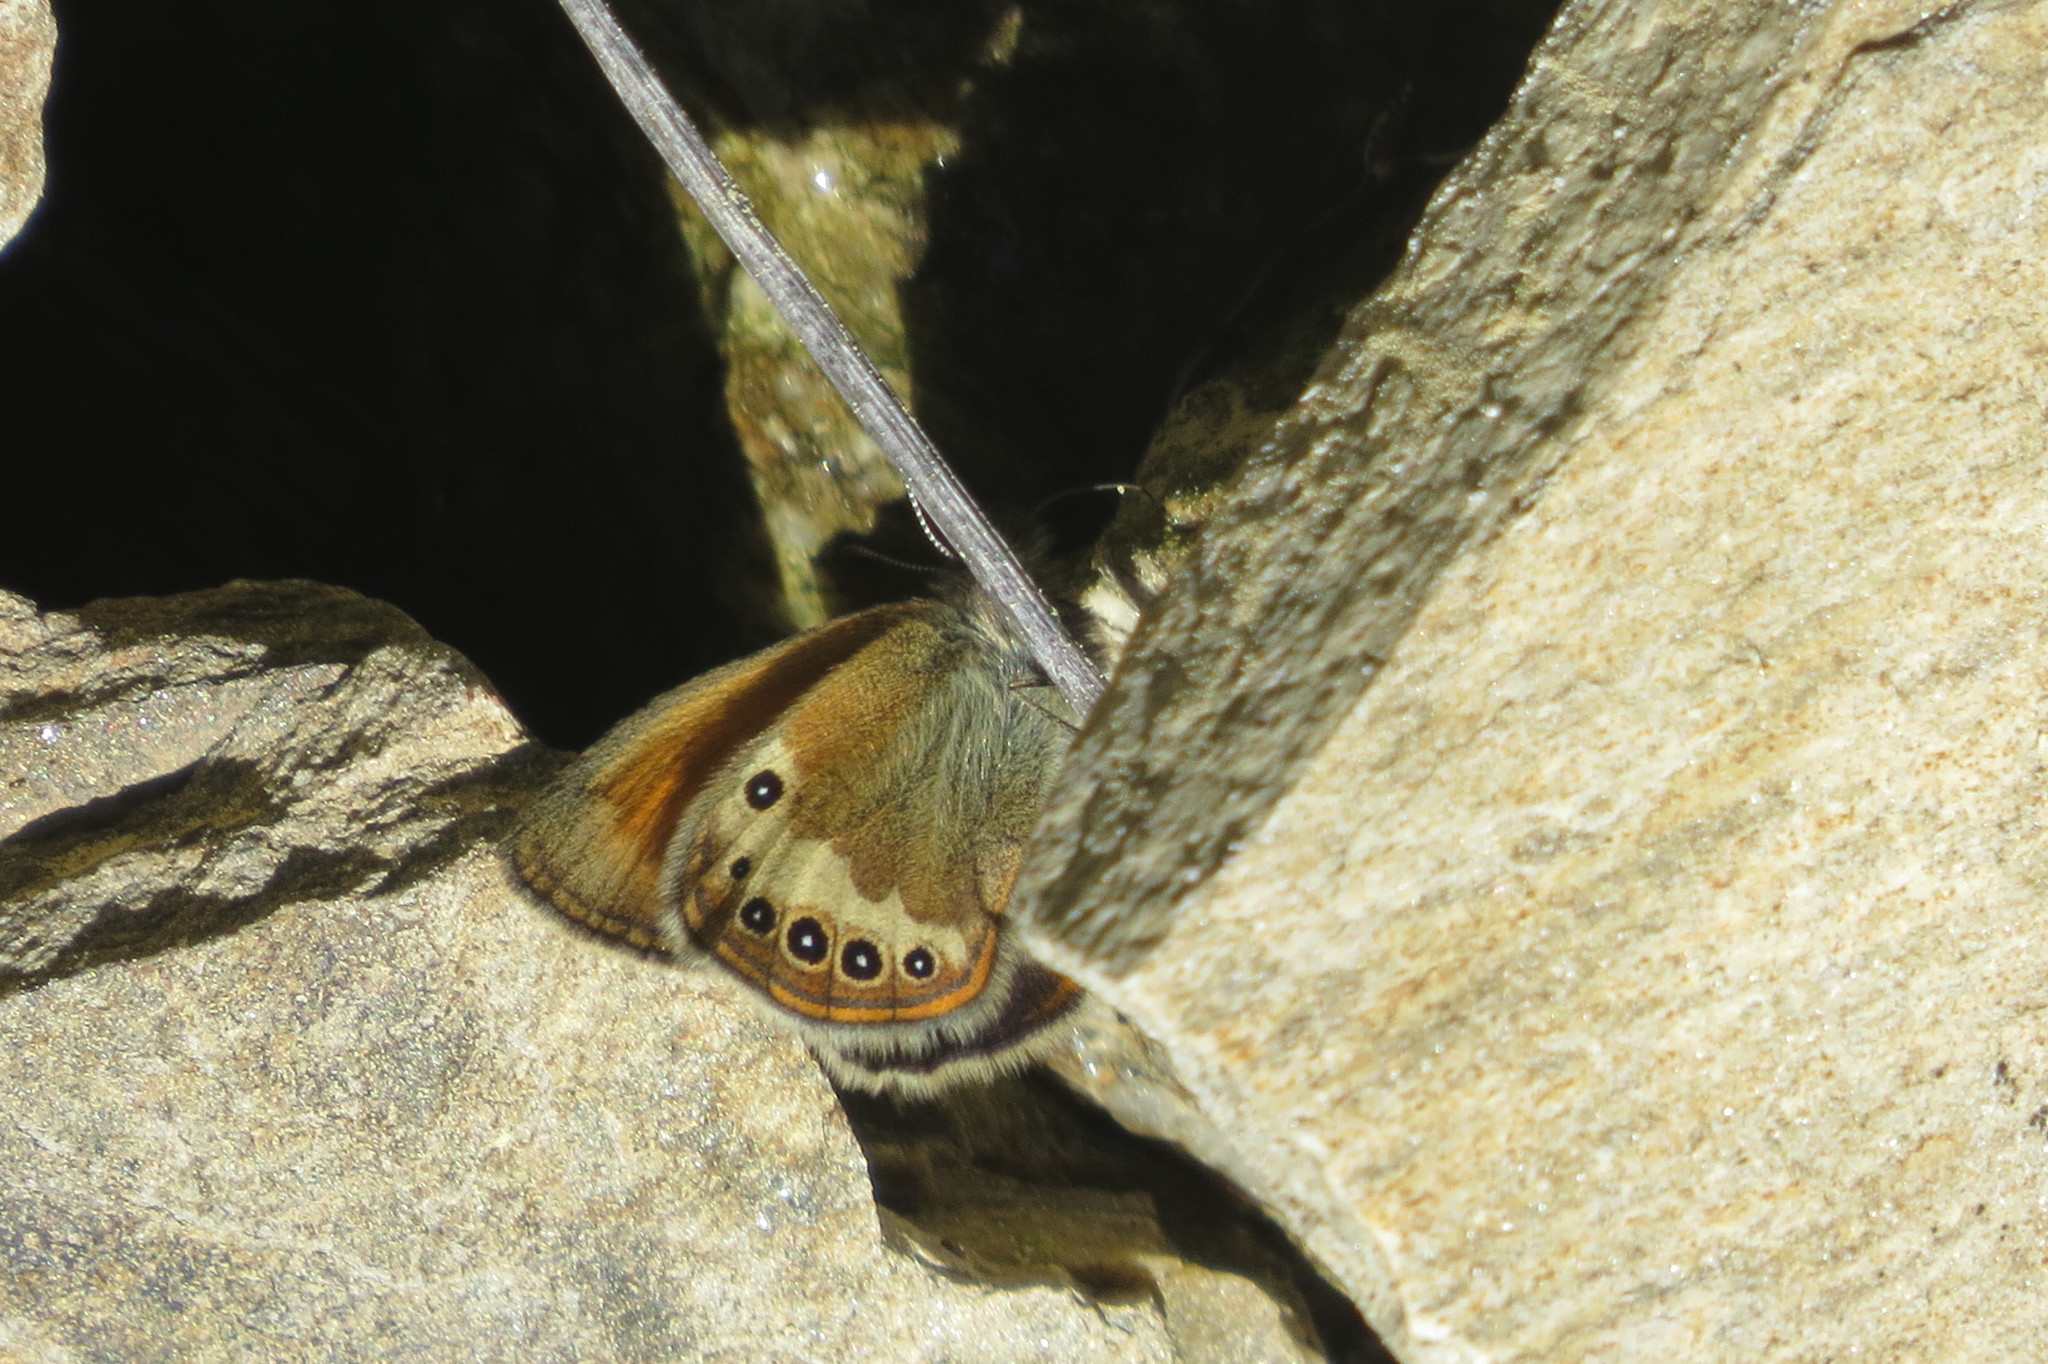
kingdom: Animalia
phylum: Arthropoda
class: Insecta
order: Lepidoptera
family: Nymphalidae
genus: Coenonympha
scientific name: Coenonympha
